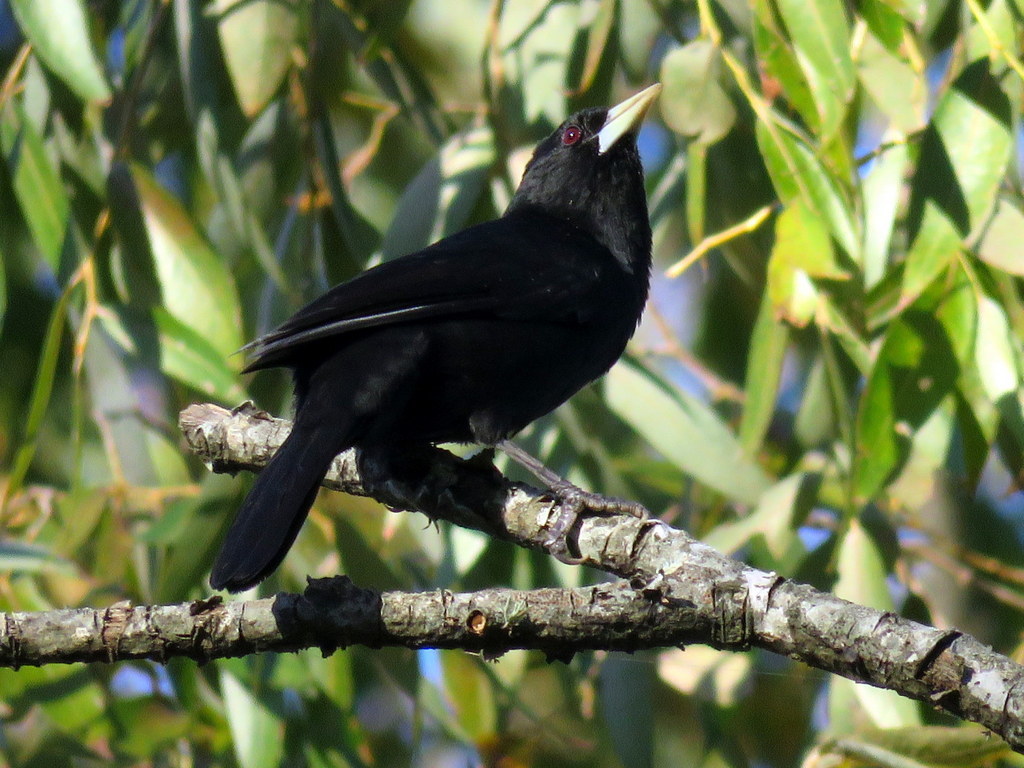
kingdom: Animalia
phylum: Chordata
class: Aves
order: Passeriformes
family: Icteridae
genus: Cacicus
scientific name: Cacicus solitarius
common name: Solitary cacique
